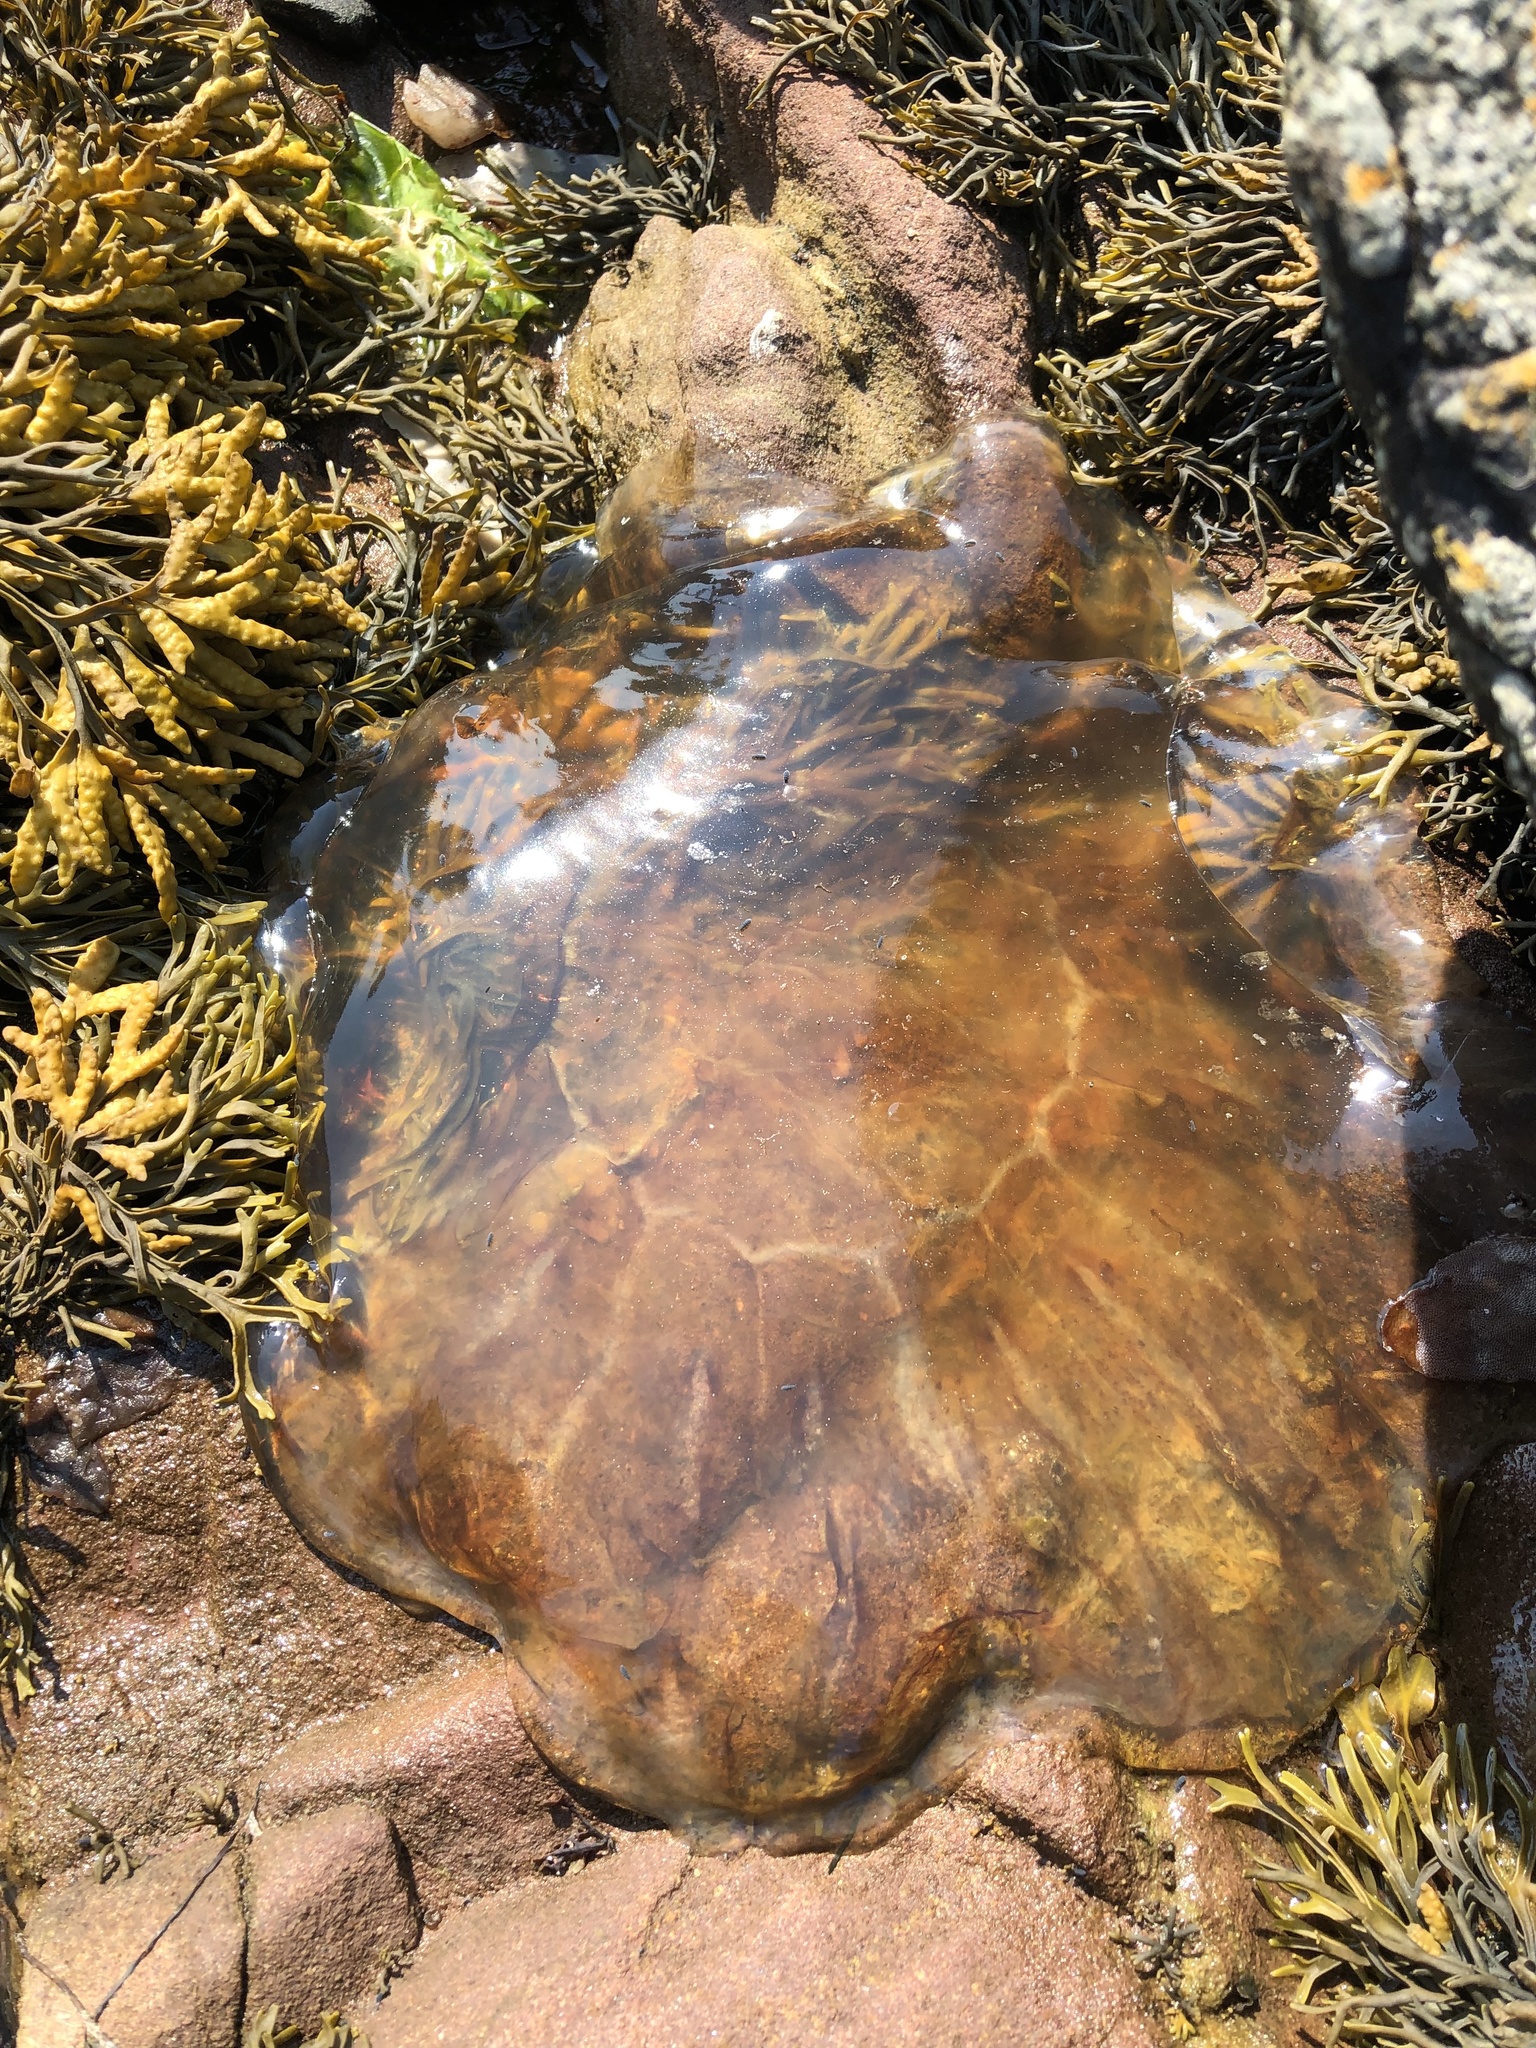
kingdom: Animalia
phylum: Cnidaria
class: Scyphozoa
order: Semaeostomeae
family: Cyaneidae
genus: Cyanea
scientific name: Cyanea capillata
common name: Lion's mane jellyfish
